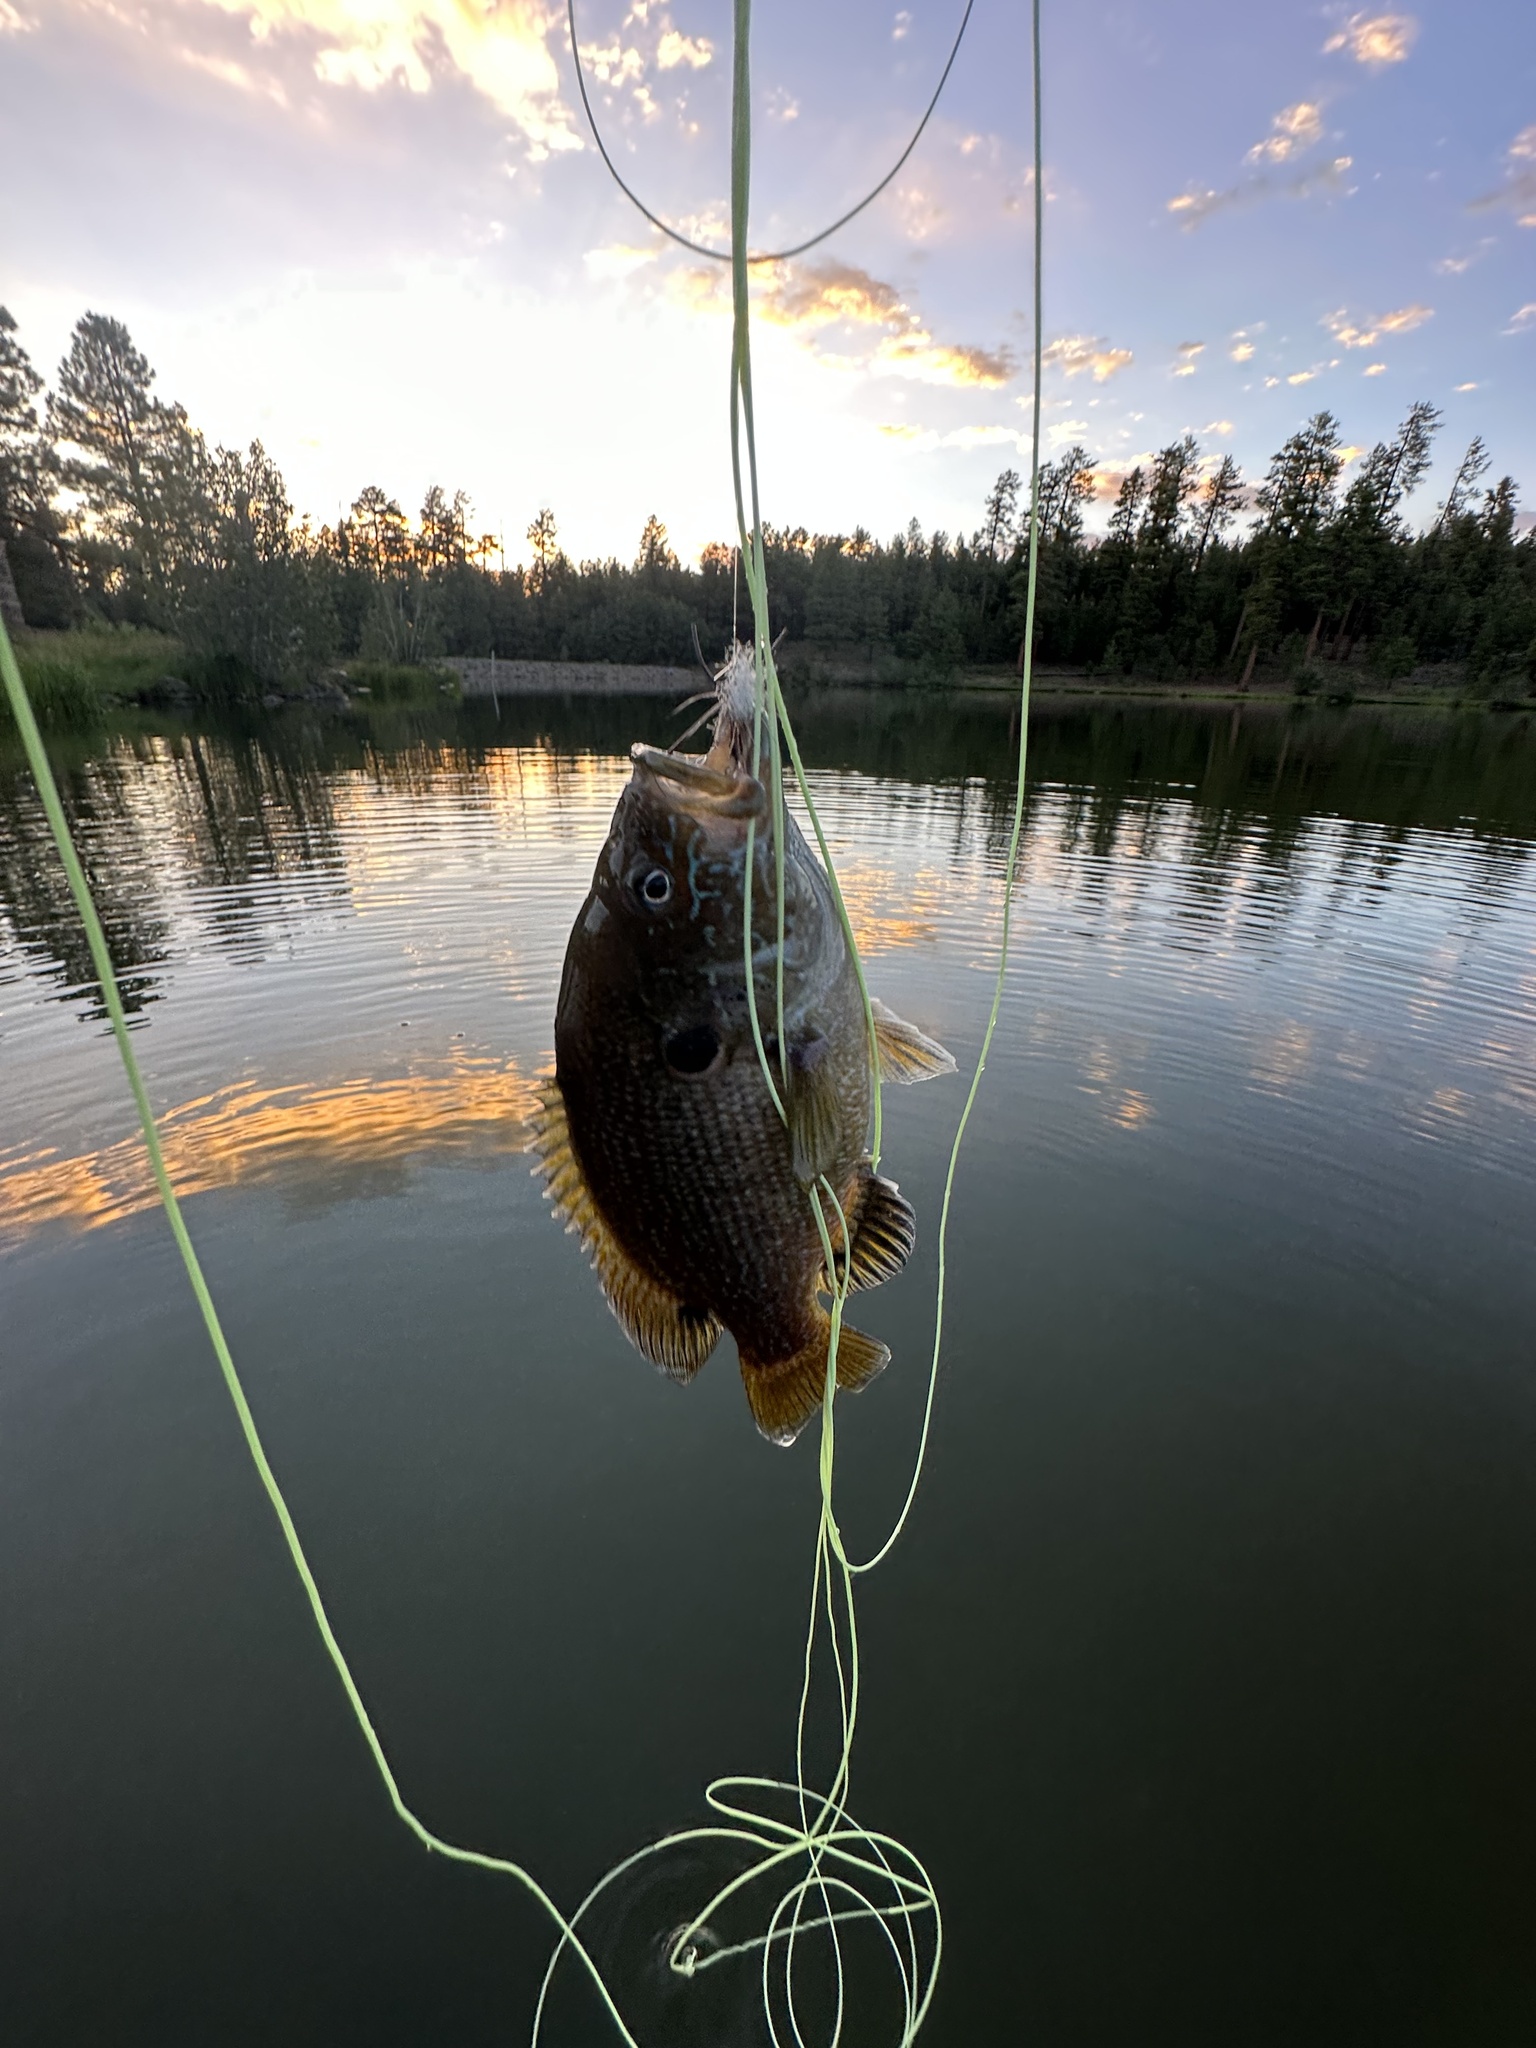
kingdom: Animalia
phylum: Chordata
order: Perciformes
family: Centrarchidae
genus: Lepomis
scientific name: Lepomis cyanellus
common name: Green sunfish
